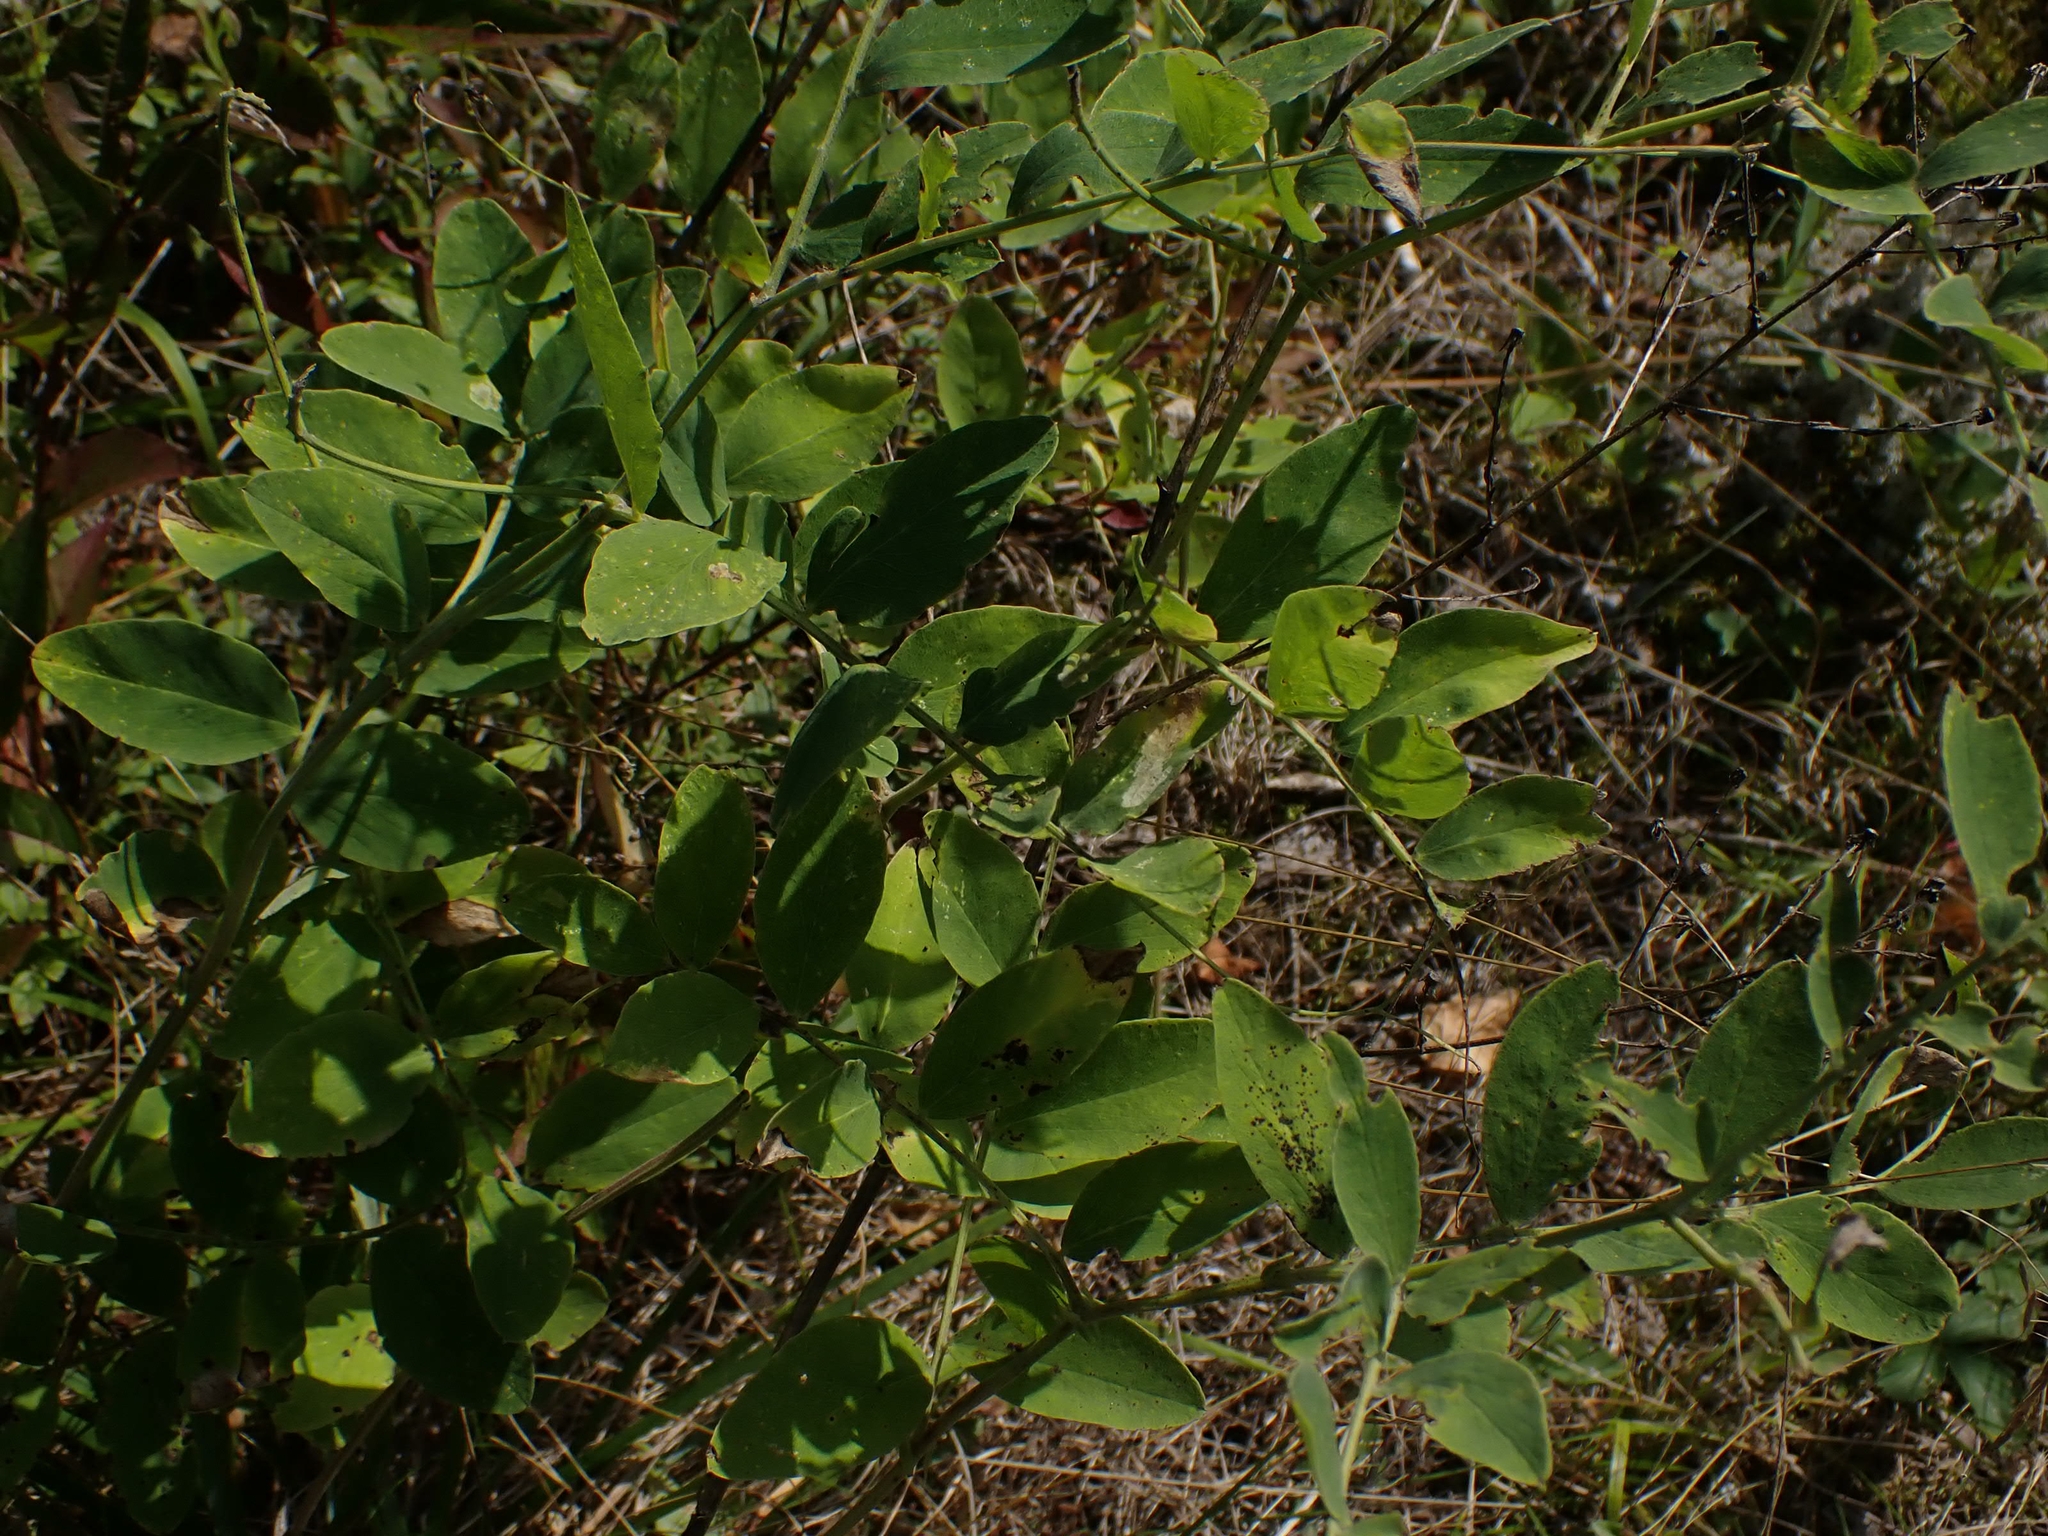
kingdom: Plantae
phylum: Tracheophyta
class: Magnoliopsida
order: Fabales
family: Fabaceae
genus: Lathyrus
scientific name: Lathyrus venosus
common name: Forest-pea
